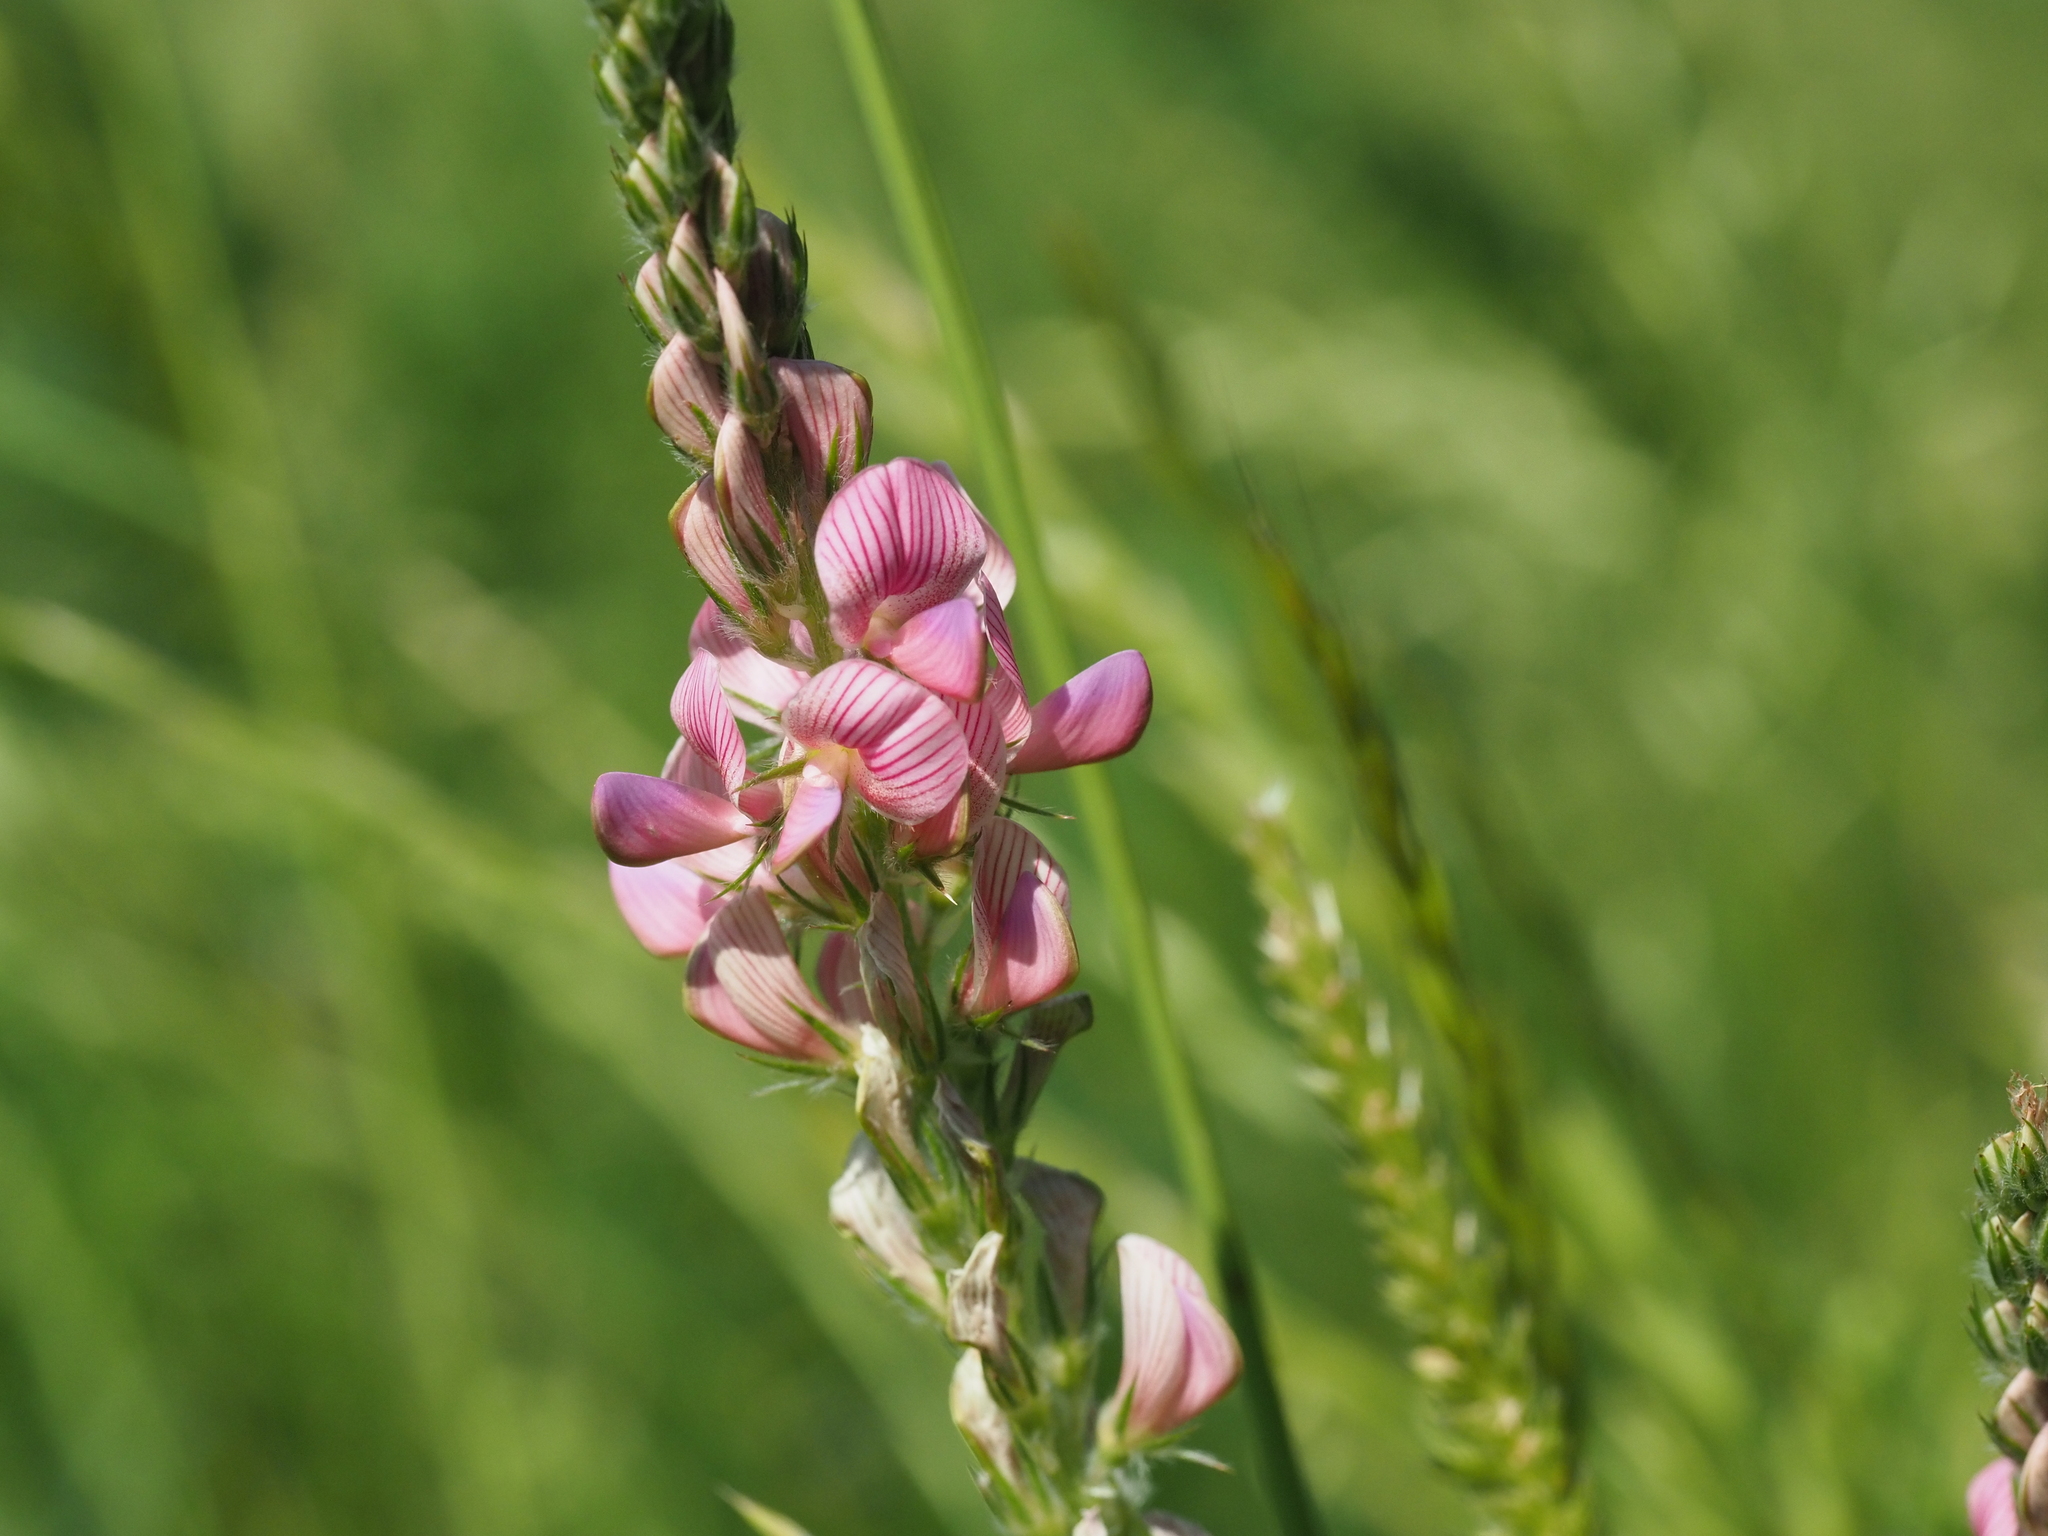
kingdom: Plantae
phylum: Tracheophyta
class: Magnoliopsida
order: Fabales
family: Fabaceae
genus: Onobrychis
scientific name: Onobrychis viciifolia
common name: Sainfoin
